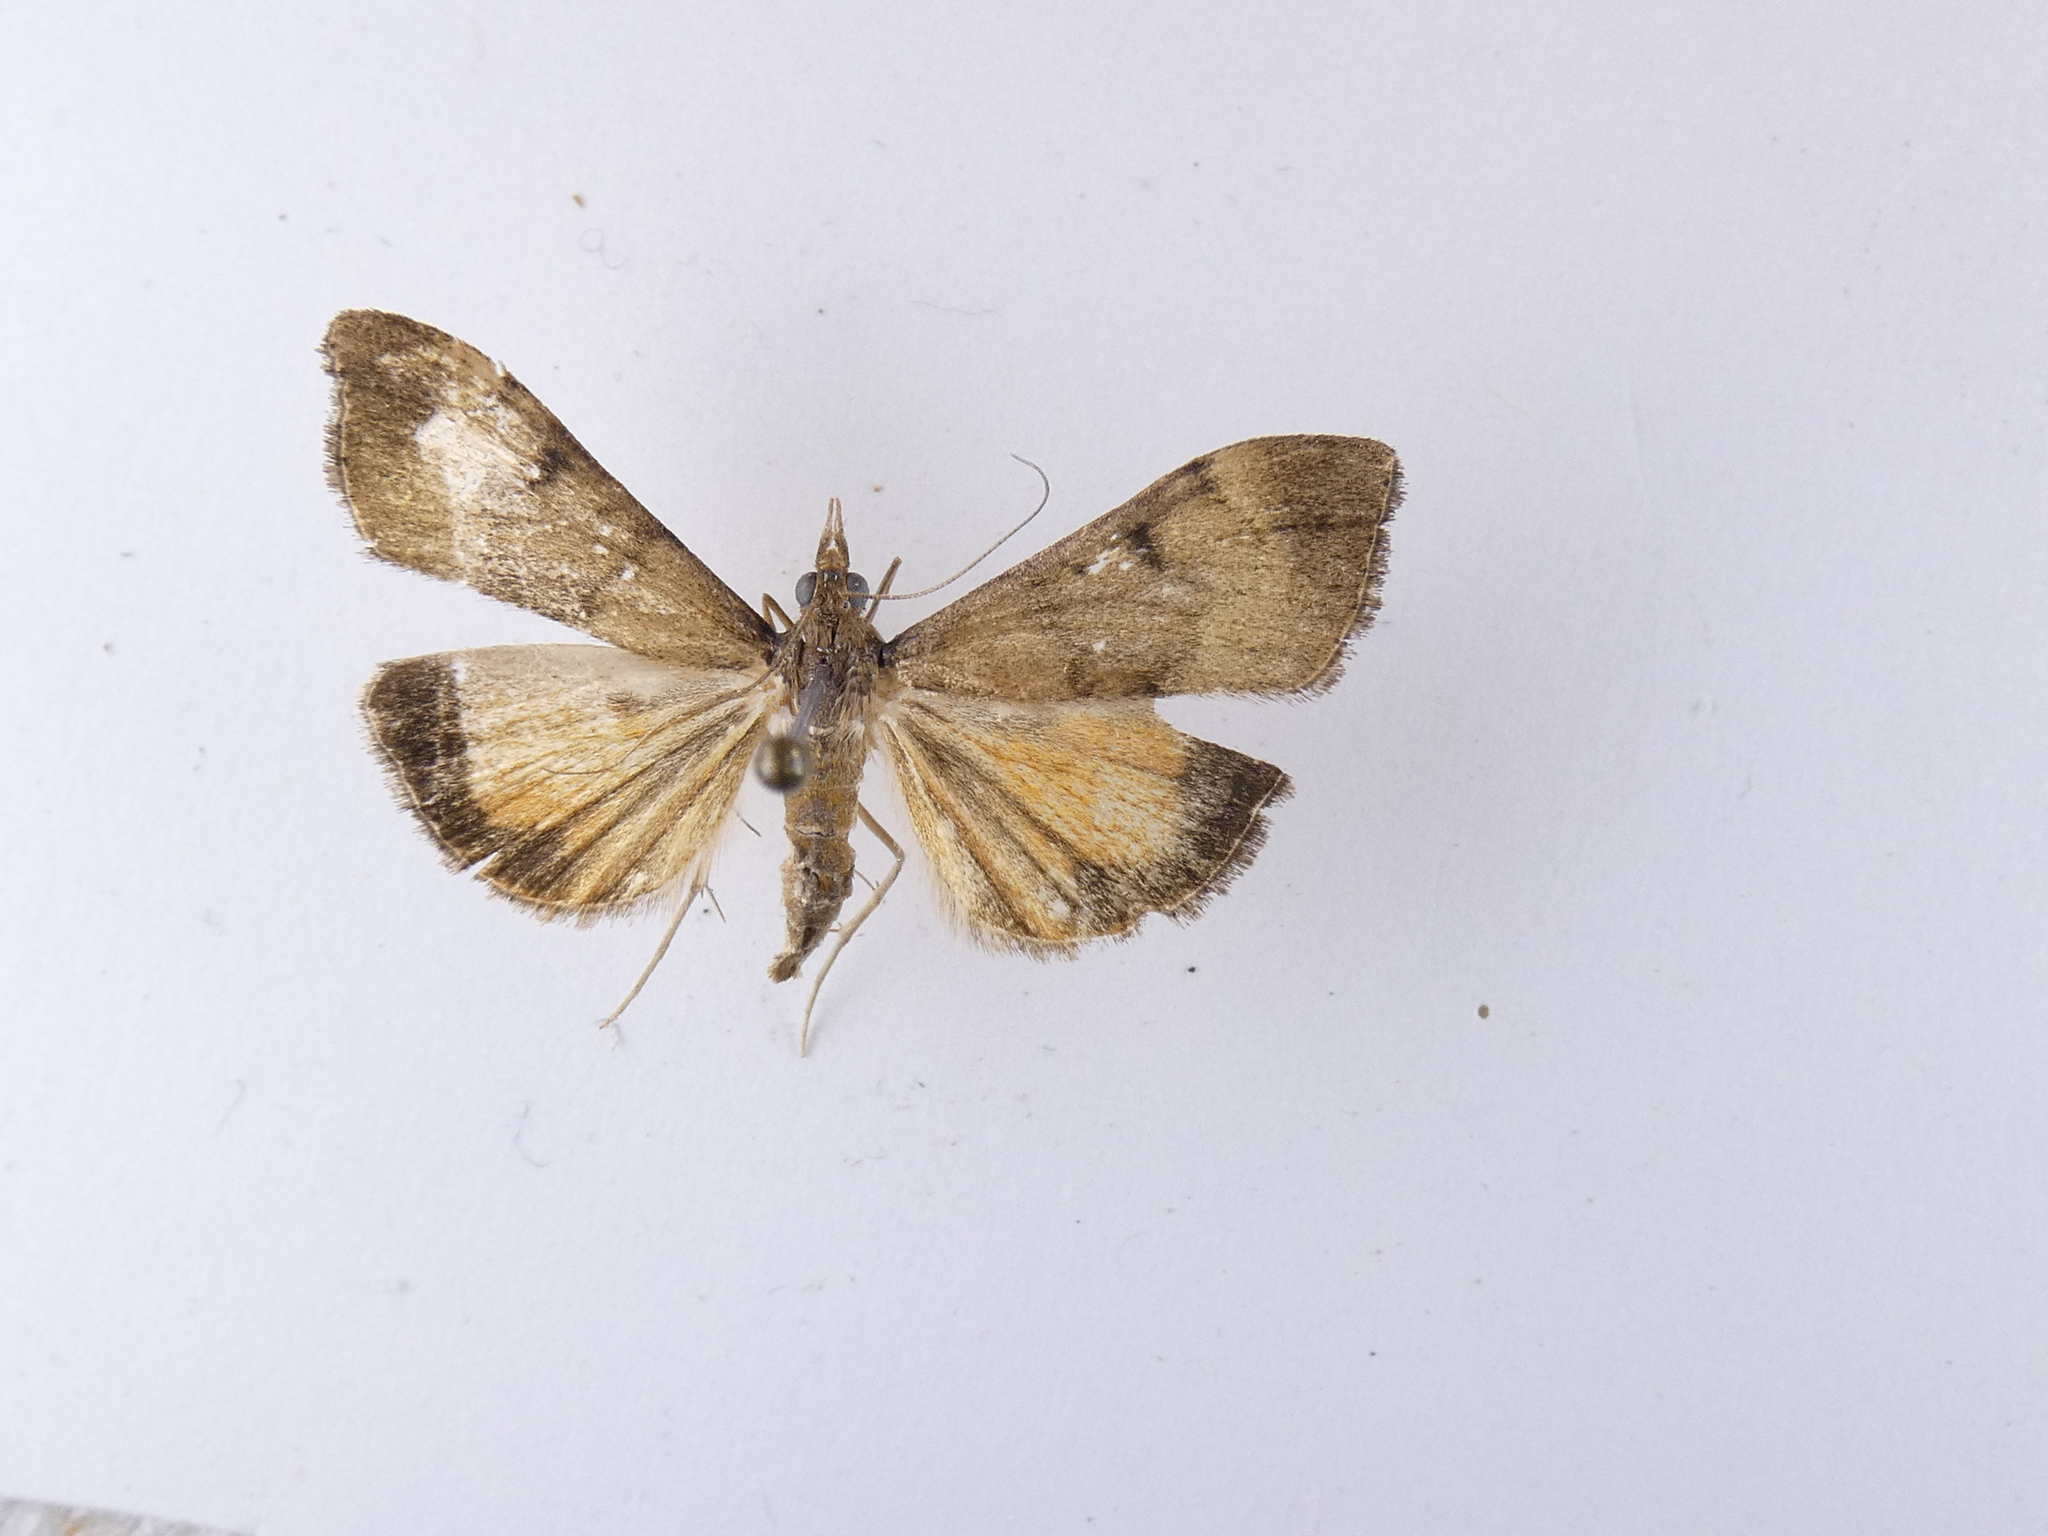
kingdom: Animalia
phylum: Arthropoda
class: Insecta
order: Lepidoptera
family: Crambidae
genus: Uresiphita
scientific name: Uresiphita
